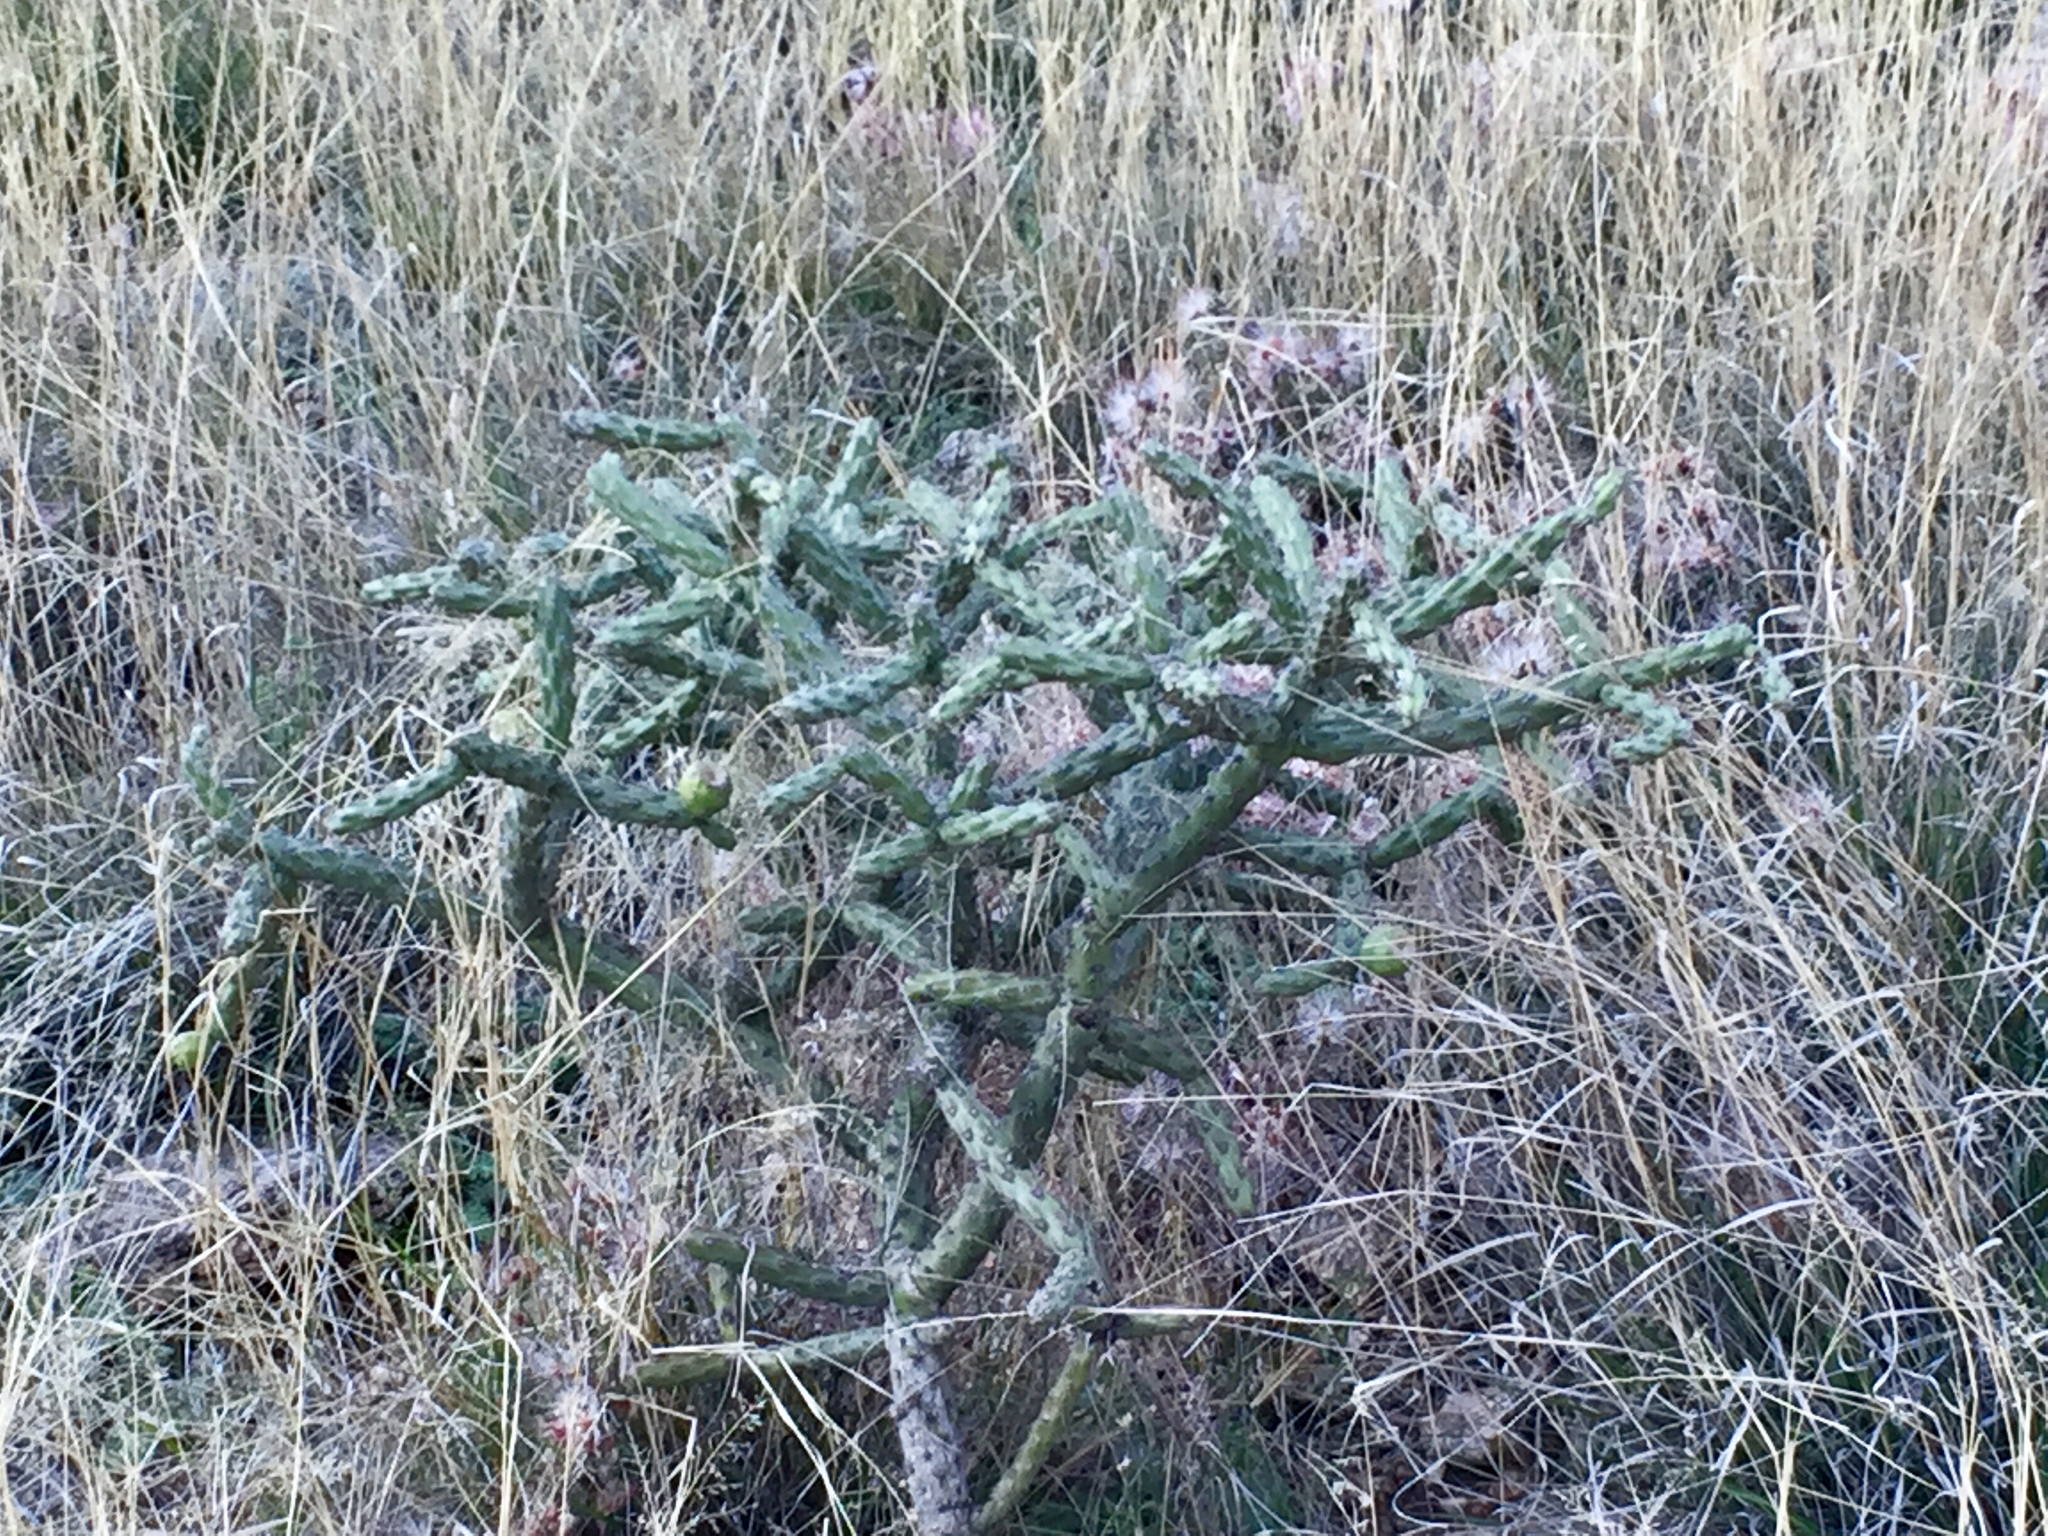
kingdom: Plantae
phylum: Tracheophyta
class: Magnoliopsida
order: Caryophyllales
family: Cactaceae
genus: Cylindropuntia
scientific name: Cylindropuntia thurberi
